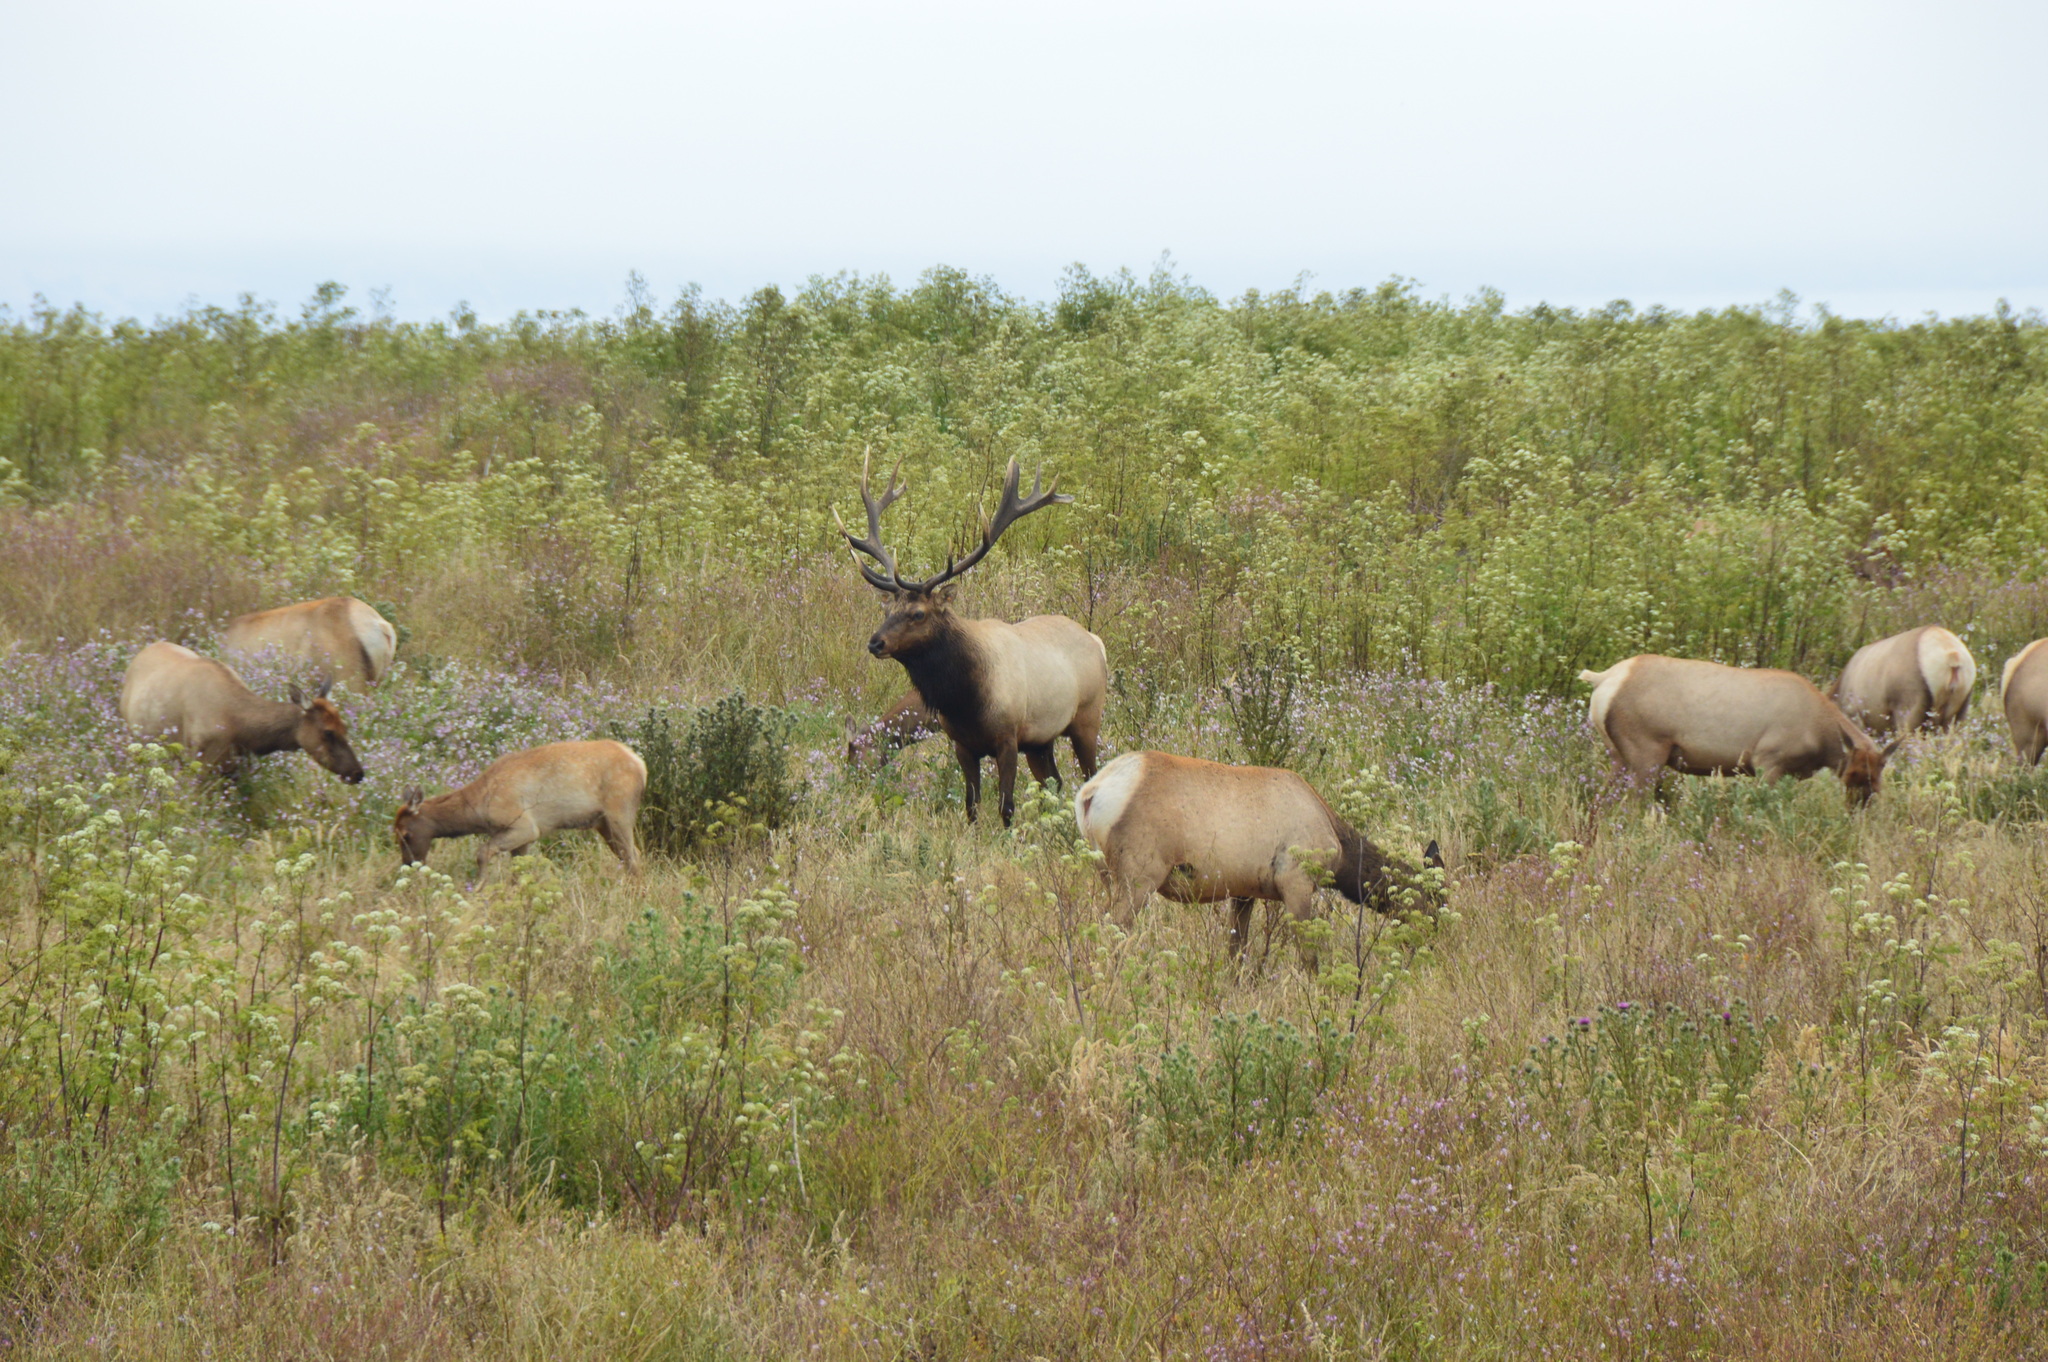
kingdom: Animalia
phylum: Chordata
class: Mammalia
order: Artiodactyla
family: Cervidae
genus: Cervus
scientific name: Cervus elaphus
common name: Red deer
